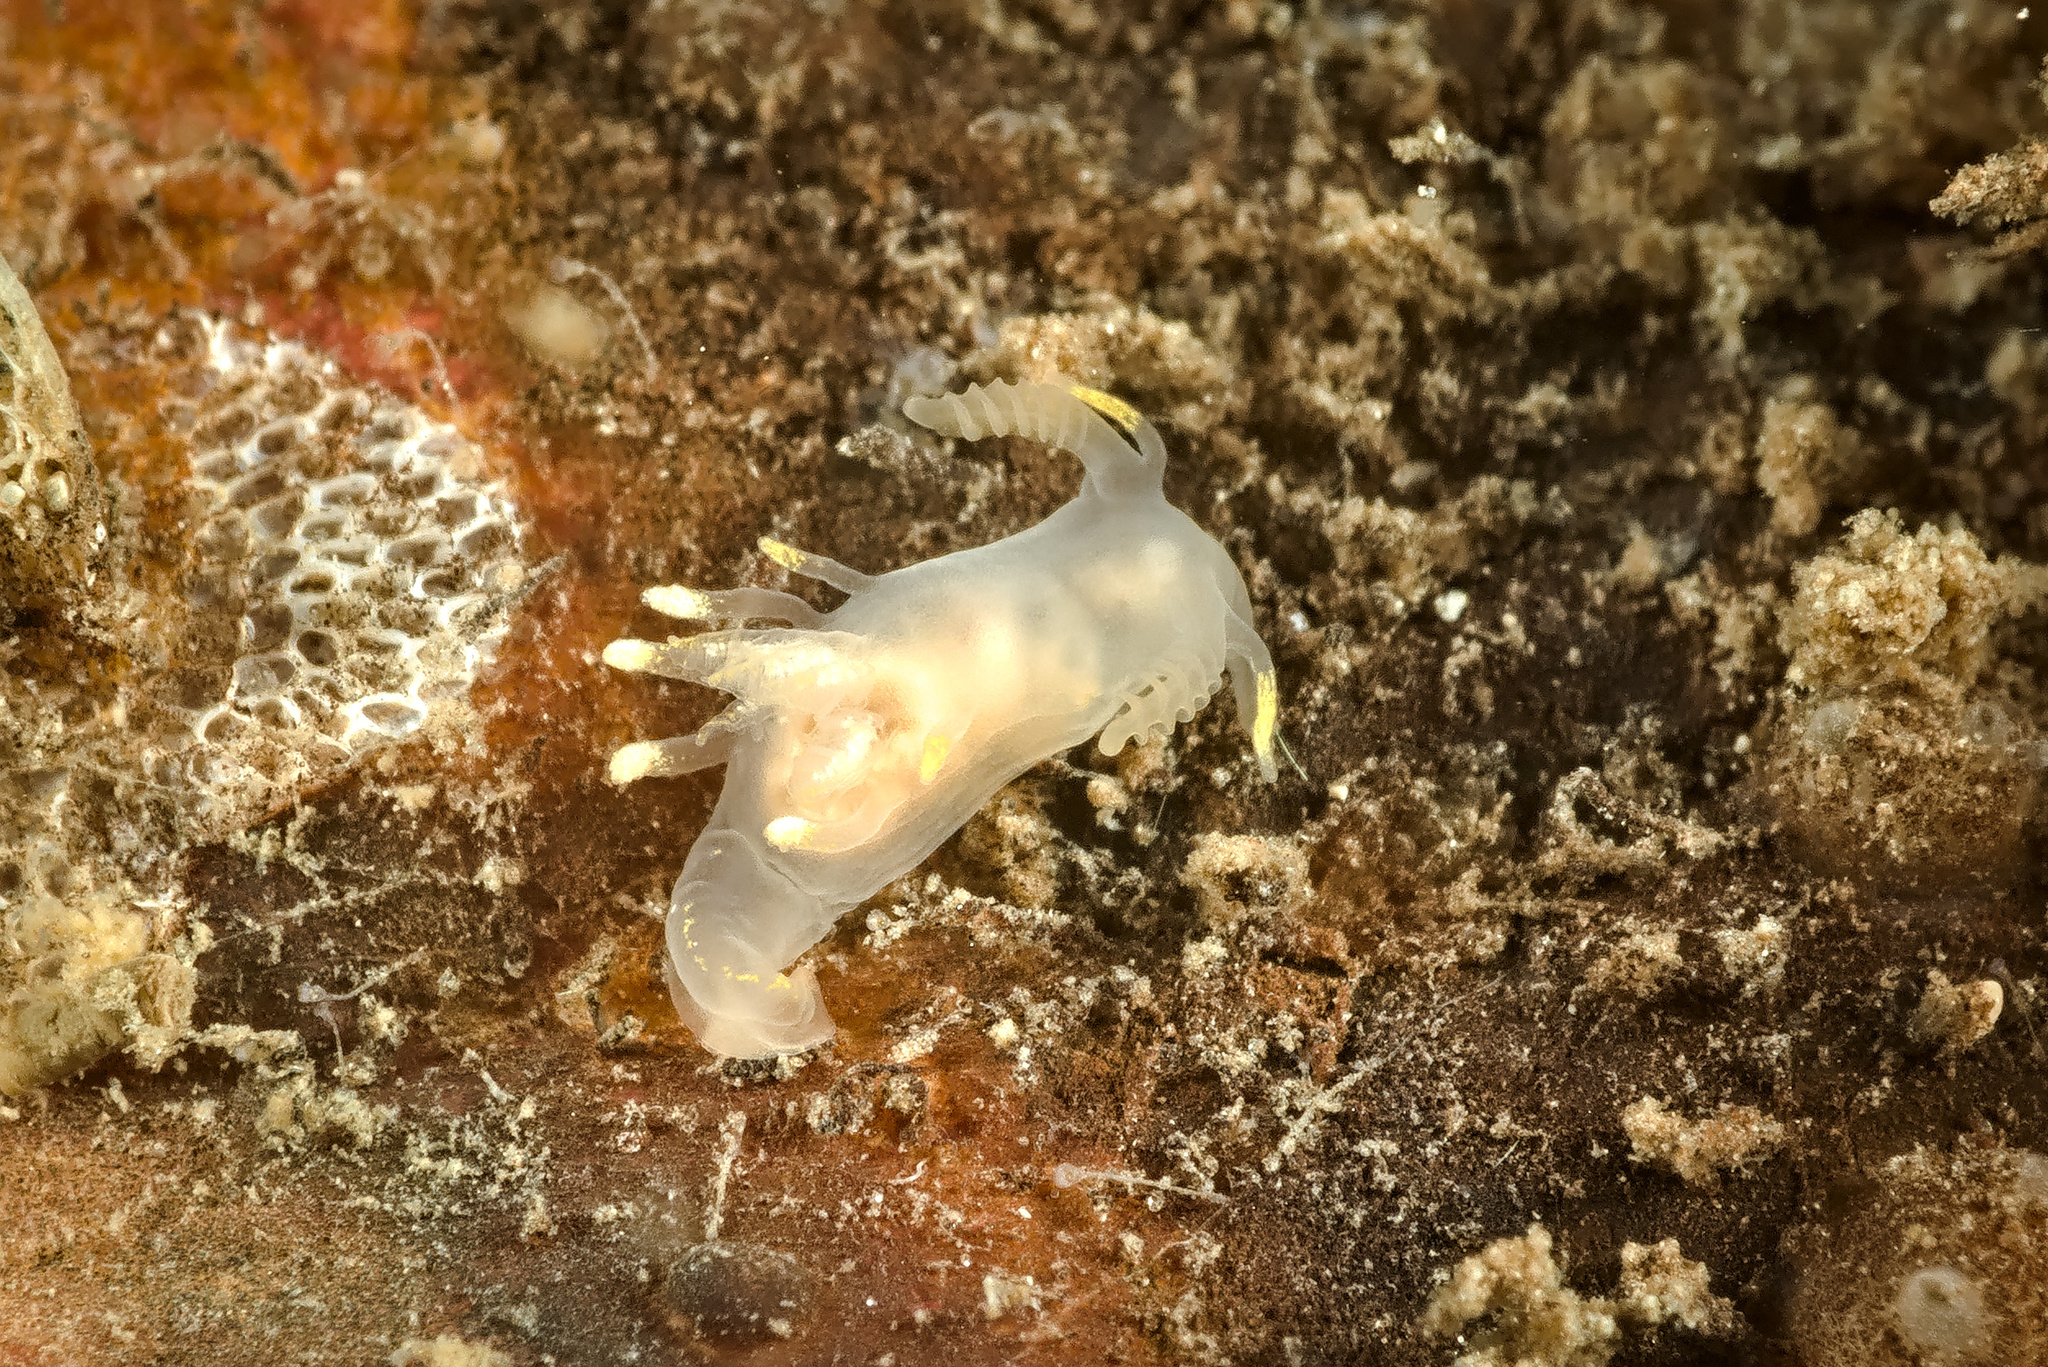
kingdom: Animalia
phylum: Mollusca
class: Gastropoda
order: Nudibranchia
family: Goniodorididae
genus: Ancula
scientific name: Ancula gibbosa
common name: Atlantic ancula
